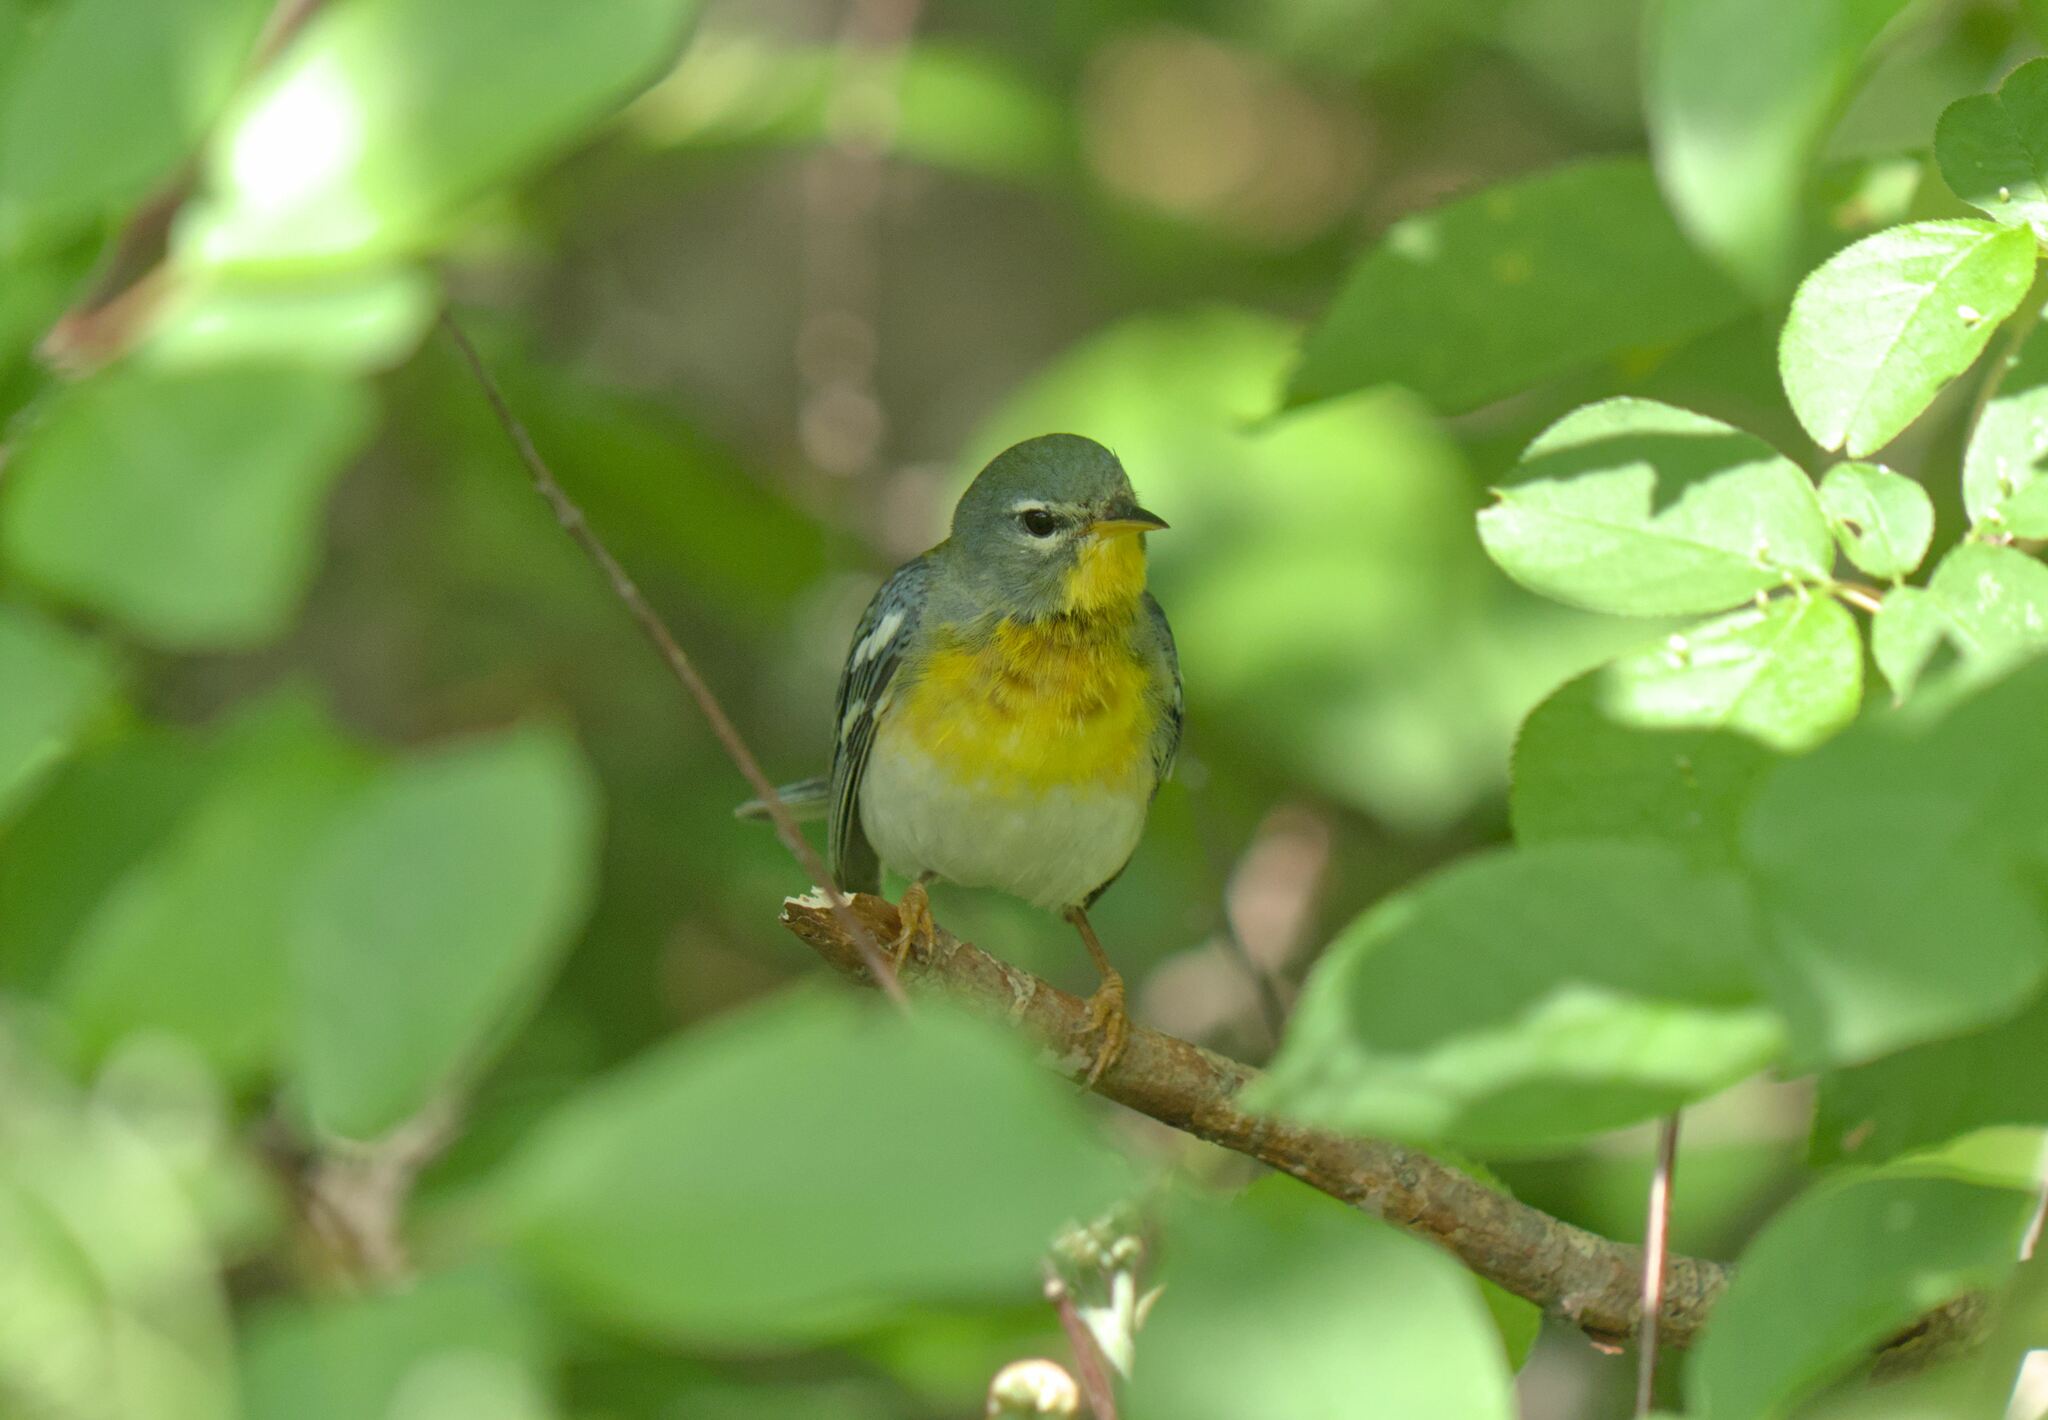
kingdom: Animalia
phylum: Chordata
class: Aves
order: Passeriformes
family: Parulidae
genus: Setophaga
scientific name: Setophaga americana
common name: Northern parula
